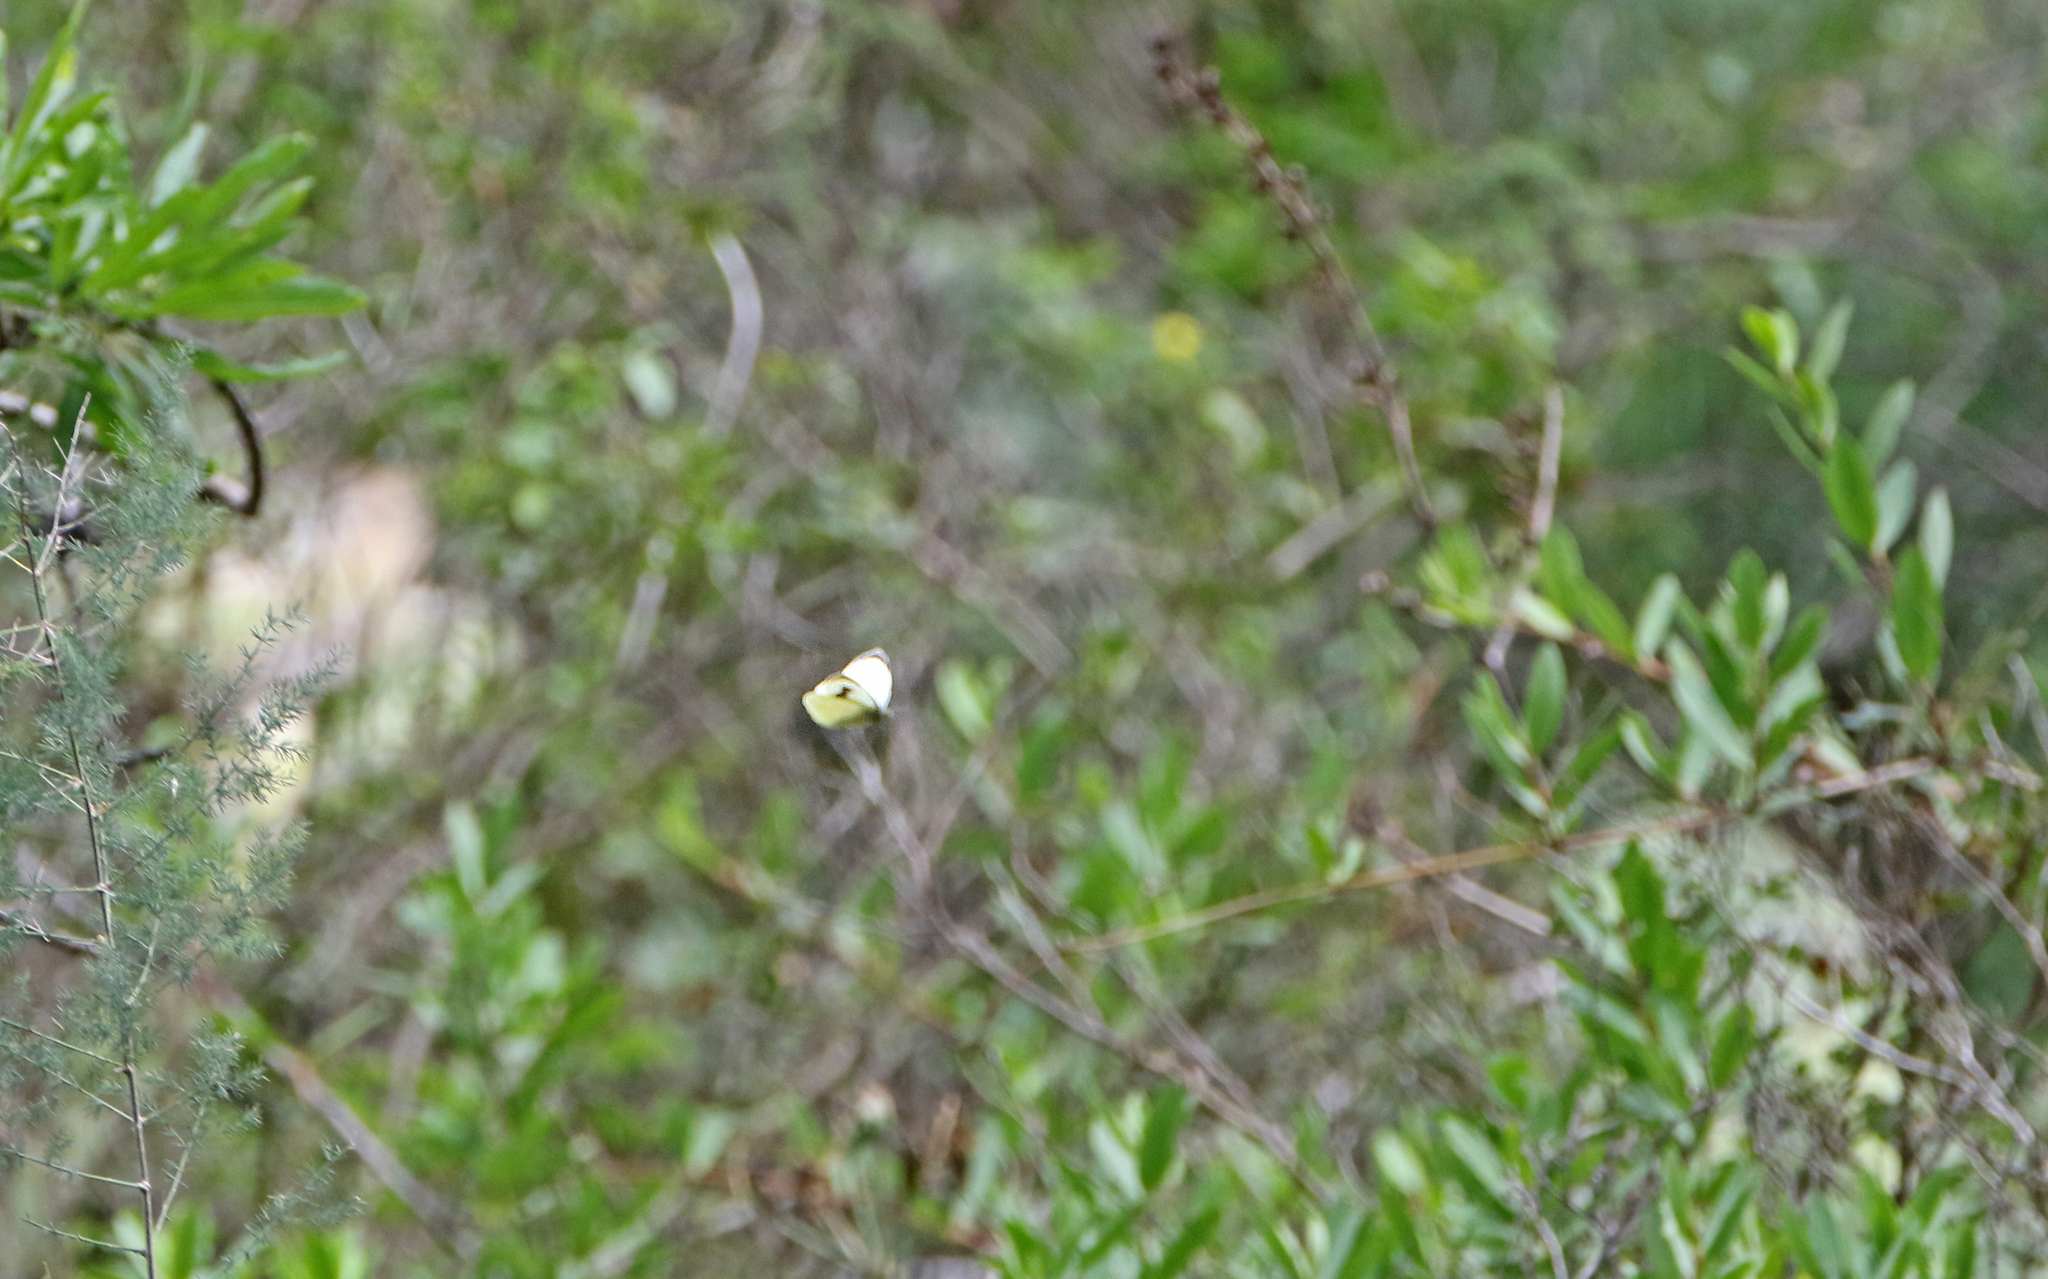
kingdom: Animalia
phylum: Arthropoda
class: Insecta
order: Lepidoptera
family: Pieridae
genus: Pieris
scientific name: Pieris cheiranthi
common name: Canary islands large white
